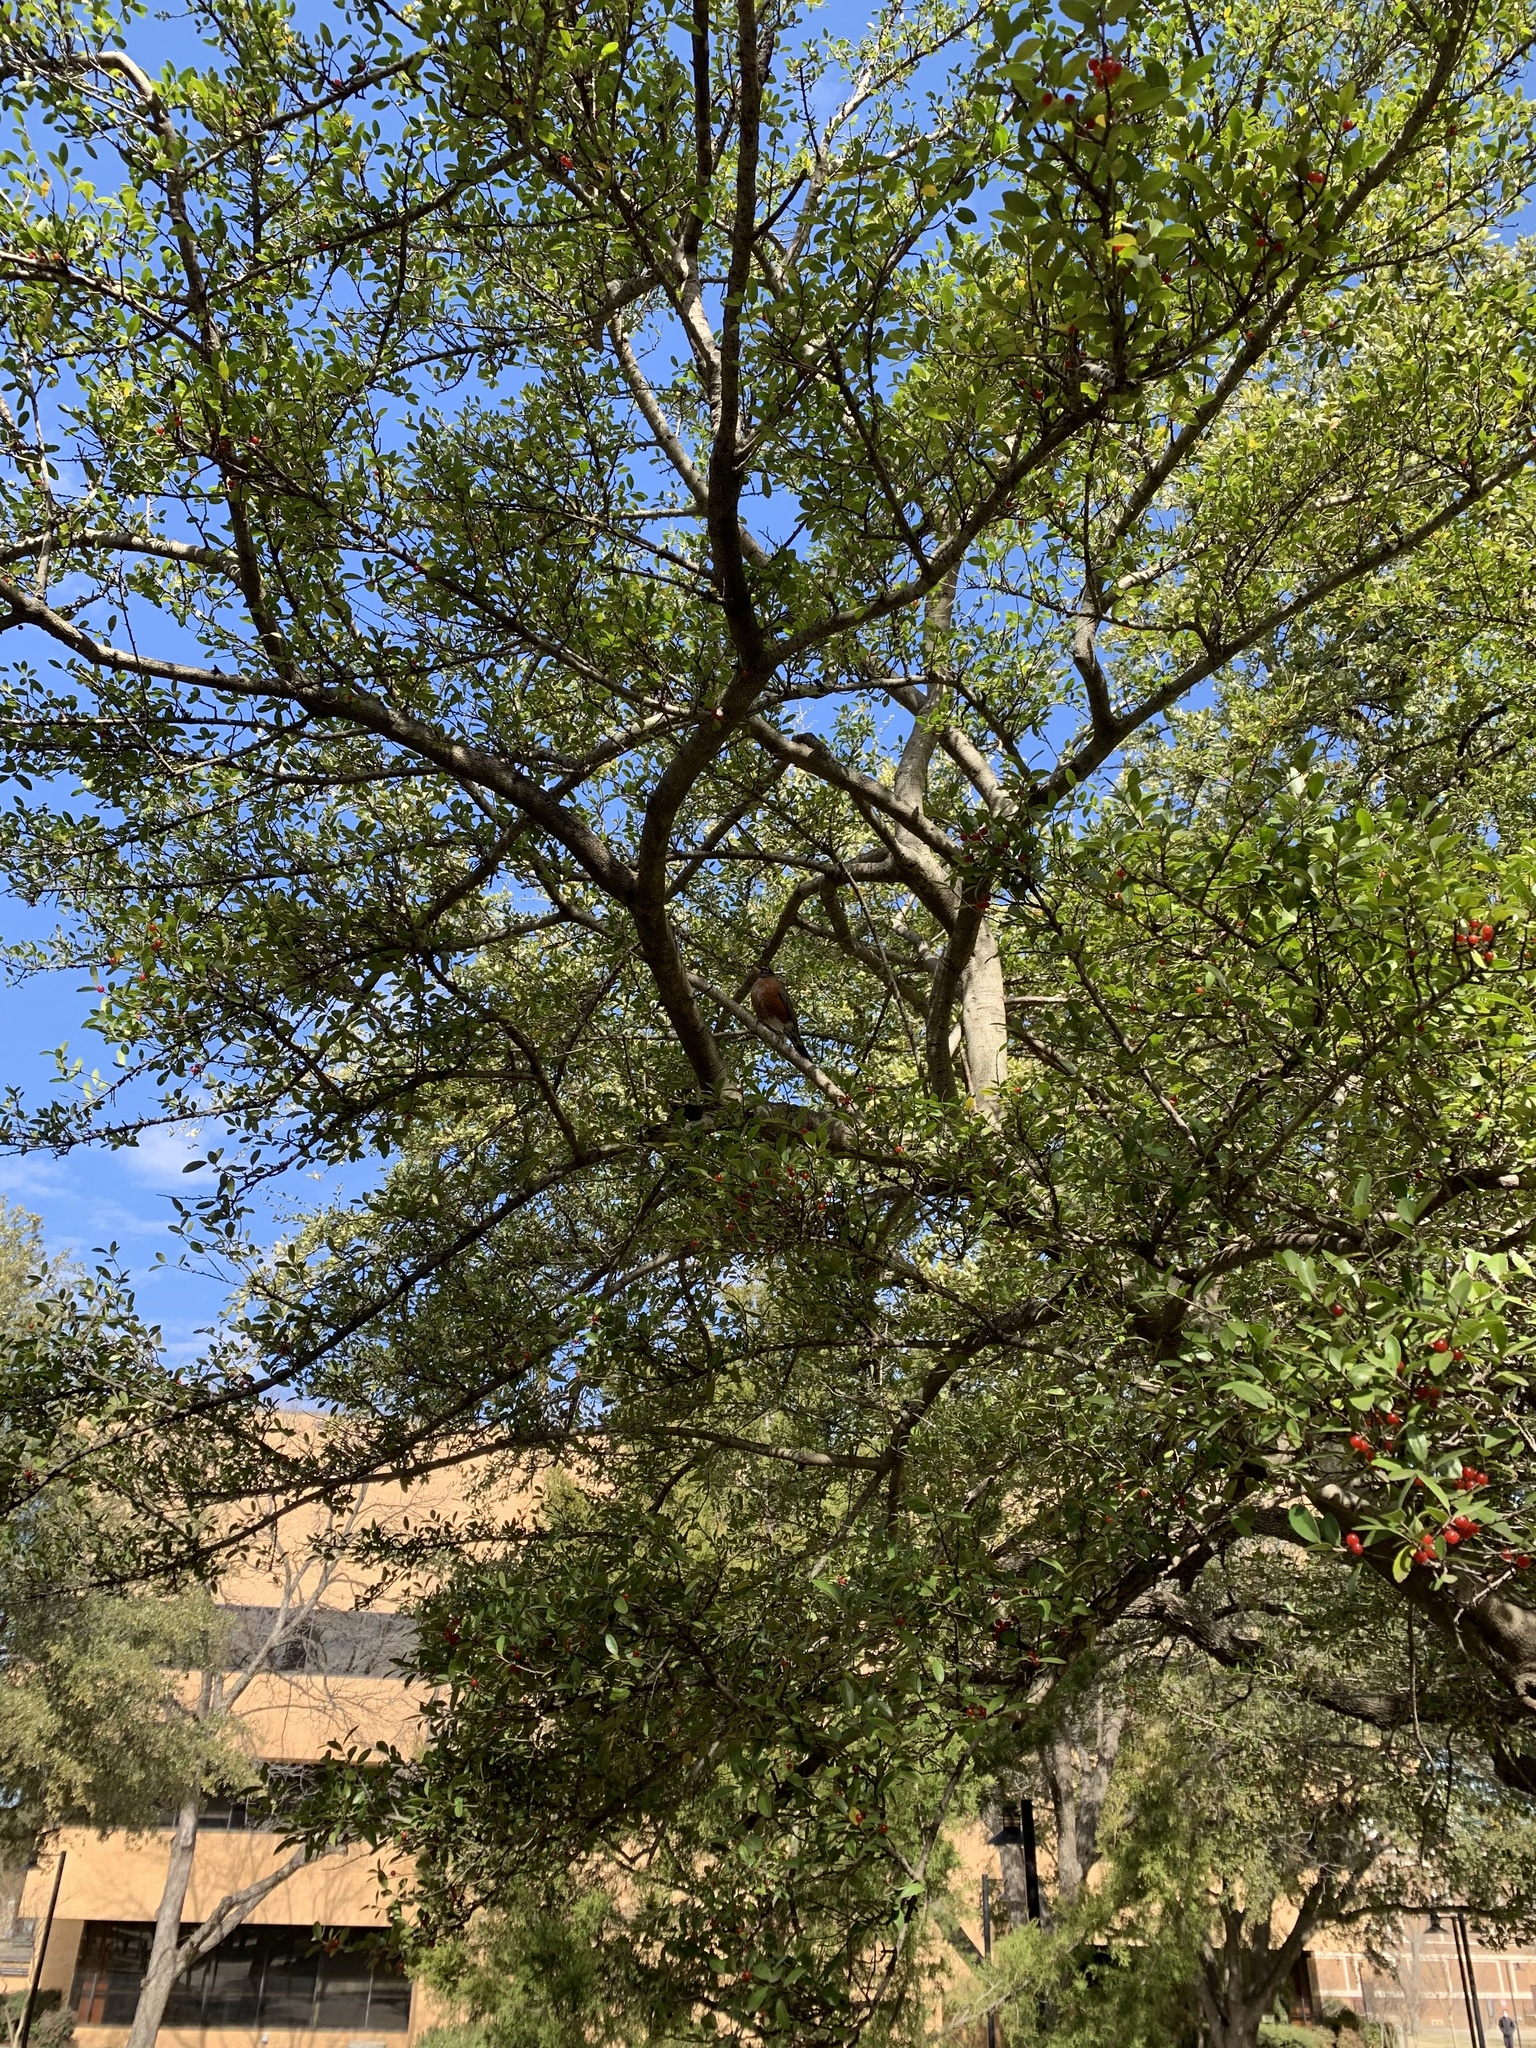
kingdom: Animalia
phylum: Chordata
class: Aves
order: Passeriformes
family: Turdidae
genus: Turdus
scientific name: Turdus migratorius
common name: American robin
